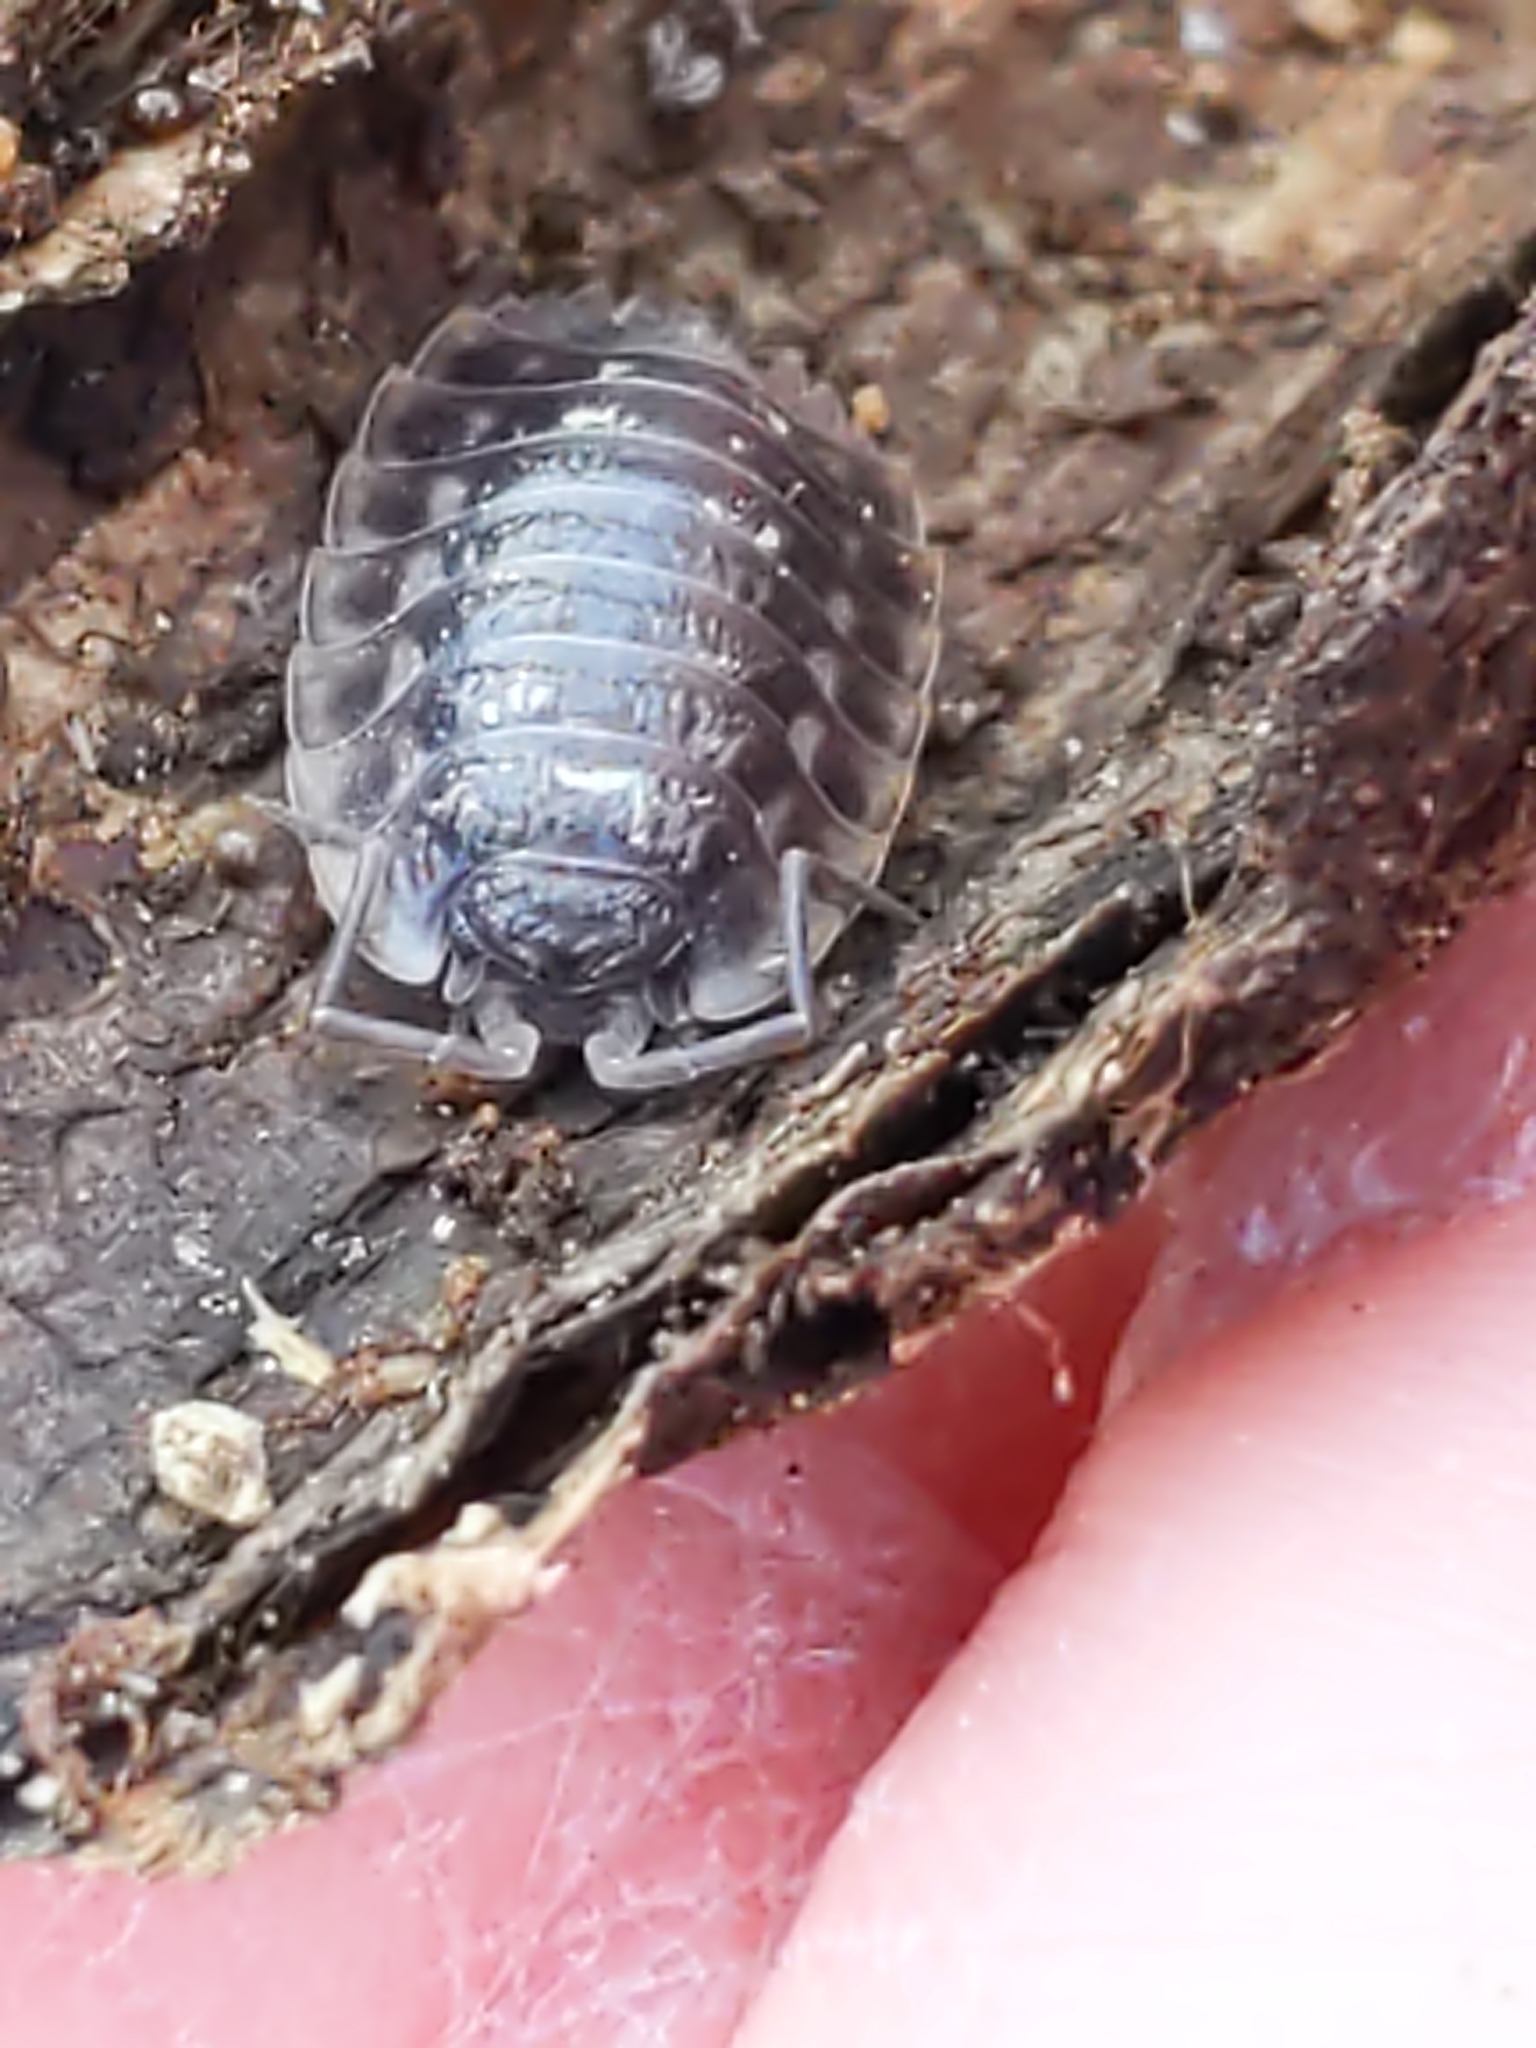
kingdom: Animalia
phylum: Arthropoda
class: Malacostraca
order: Isopoda
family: Oniscidae
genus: Oniscus
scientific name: Oniscus asellus
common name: Common shiny woodlouse
